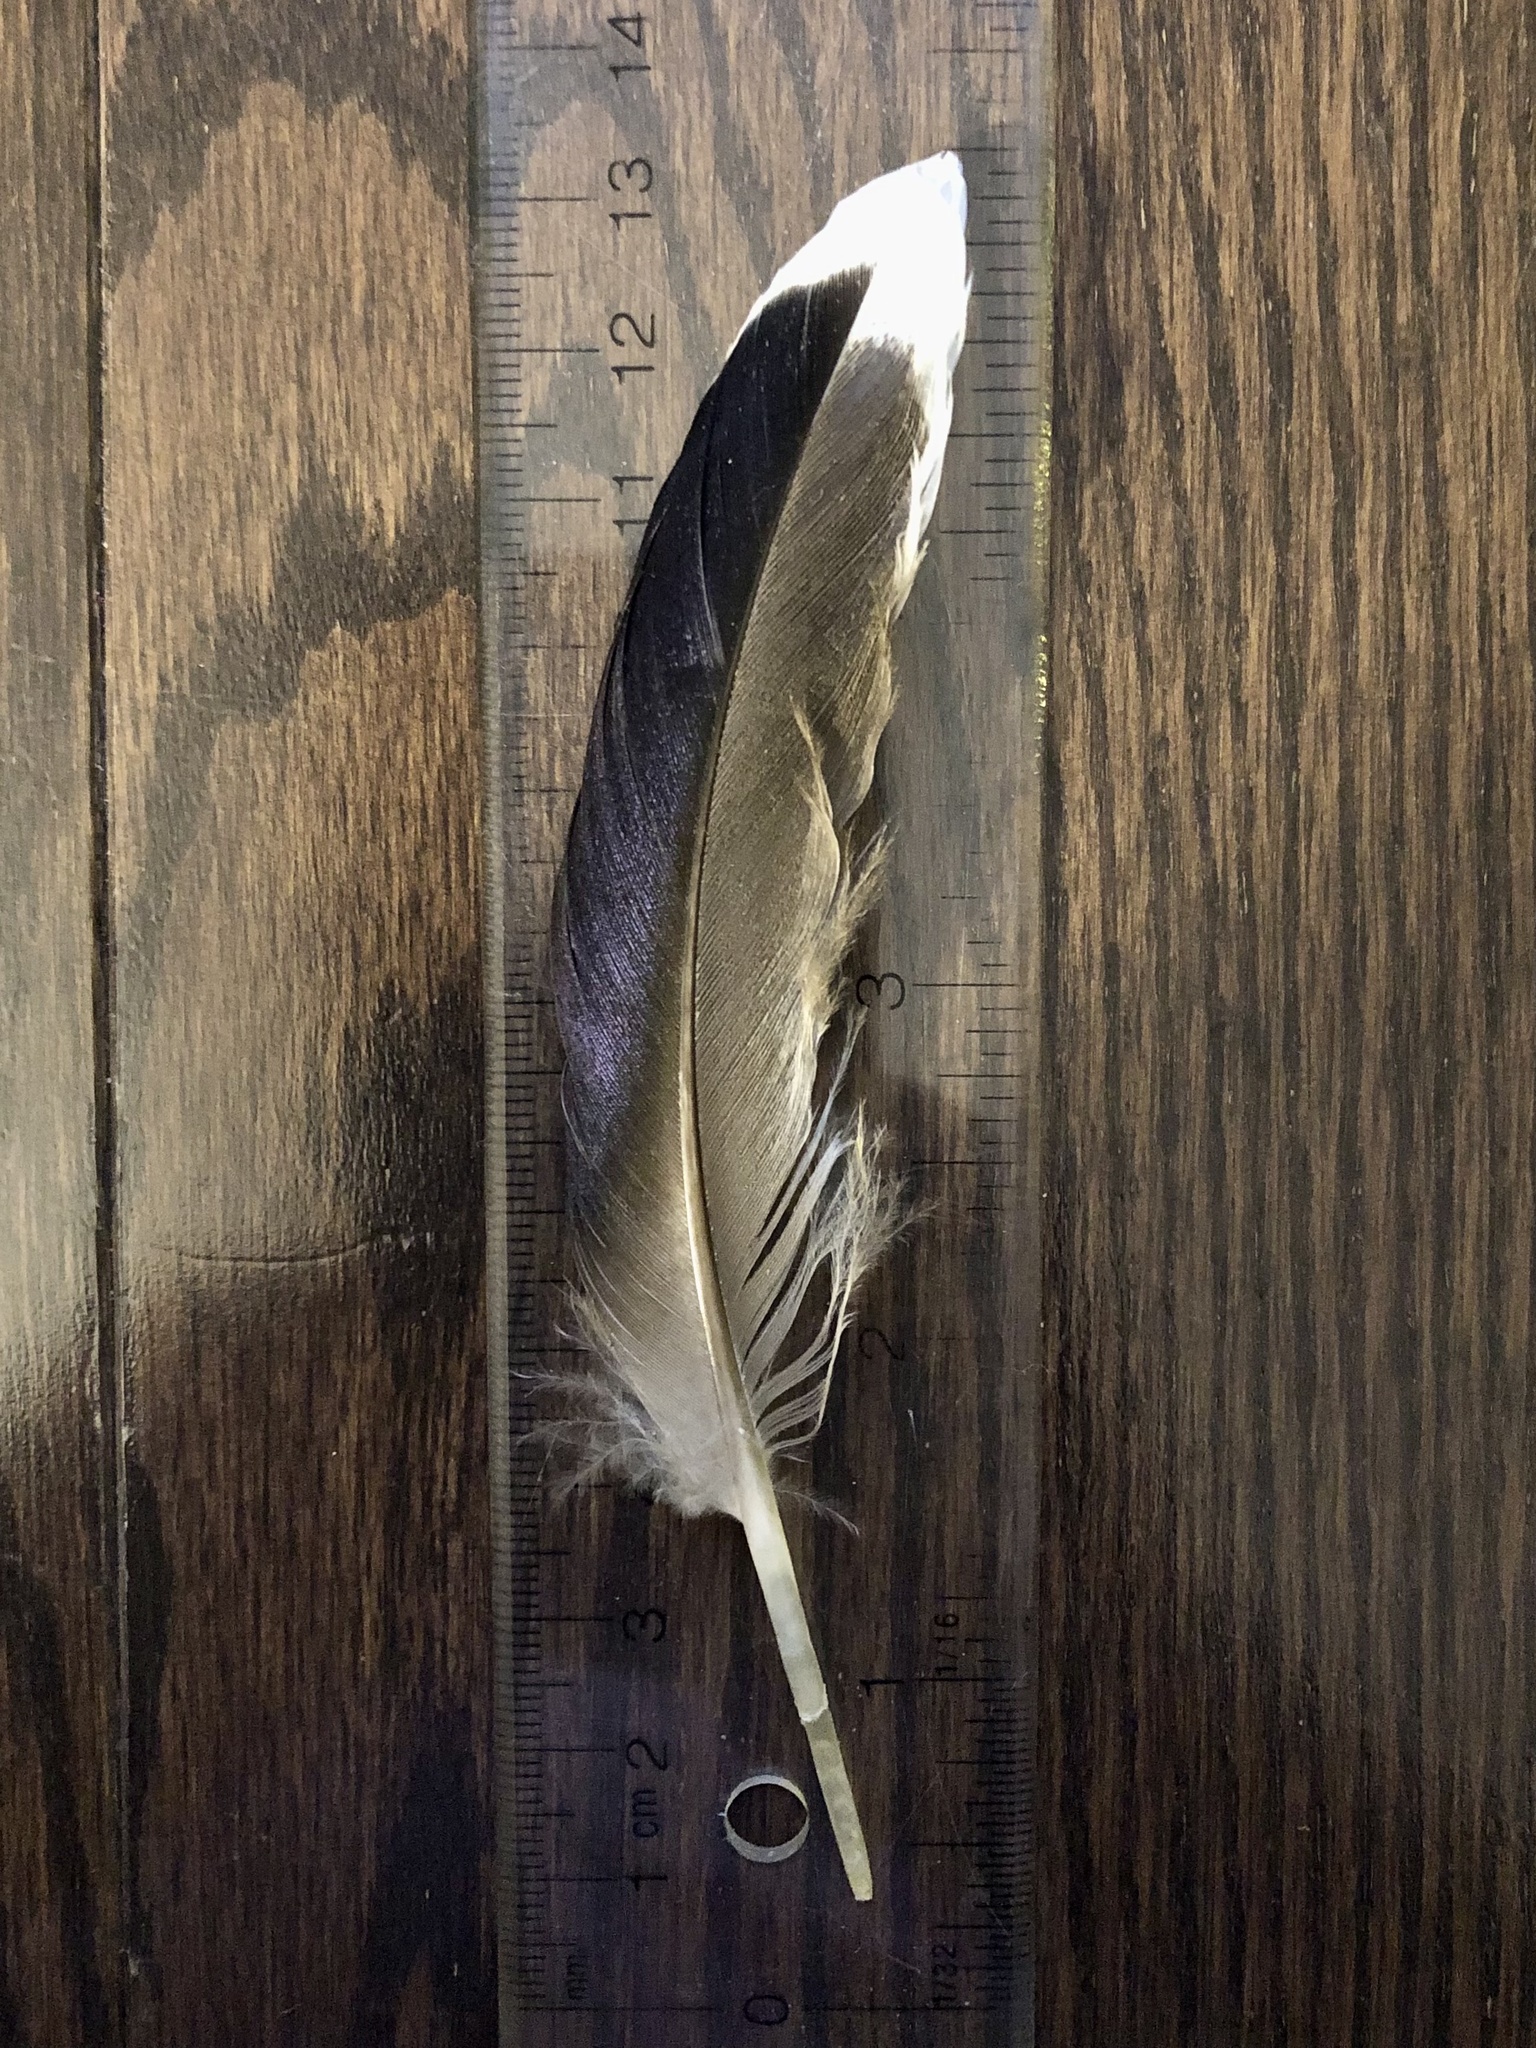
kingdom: Animalia
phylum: Chordata
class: Aves
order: Anseriformes
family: Anatidae
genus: Anas
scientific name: Anas platyrhynchos
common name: Mallard
